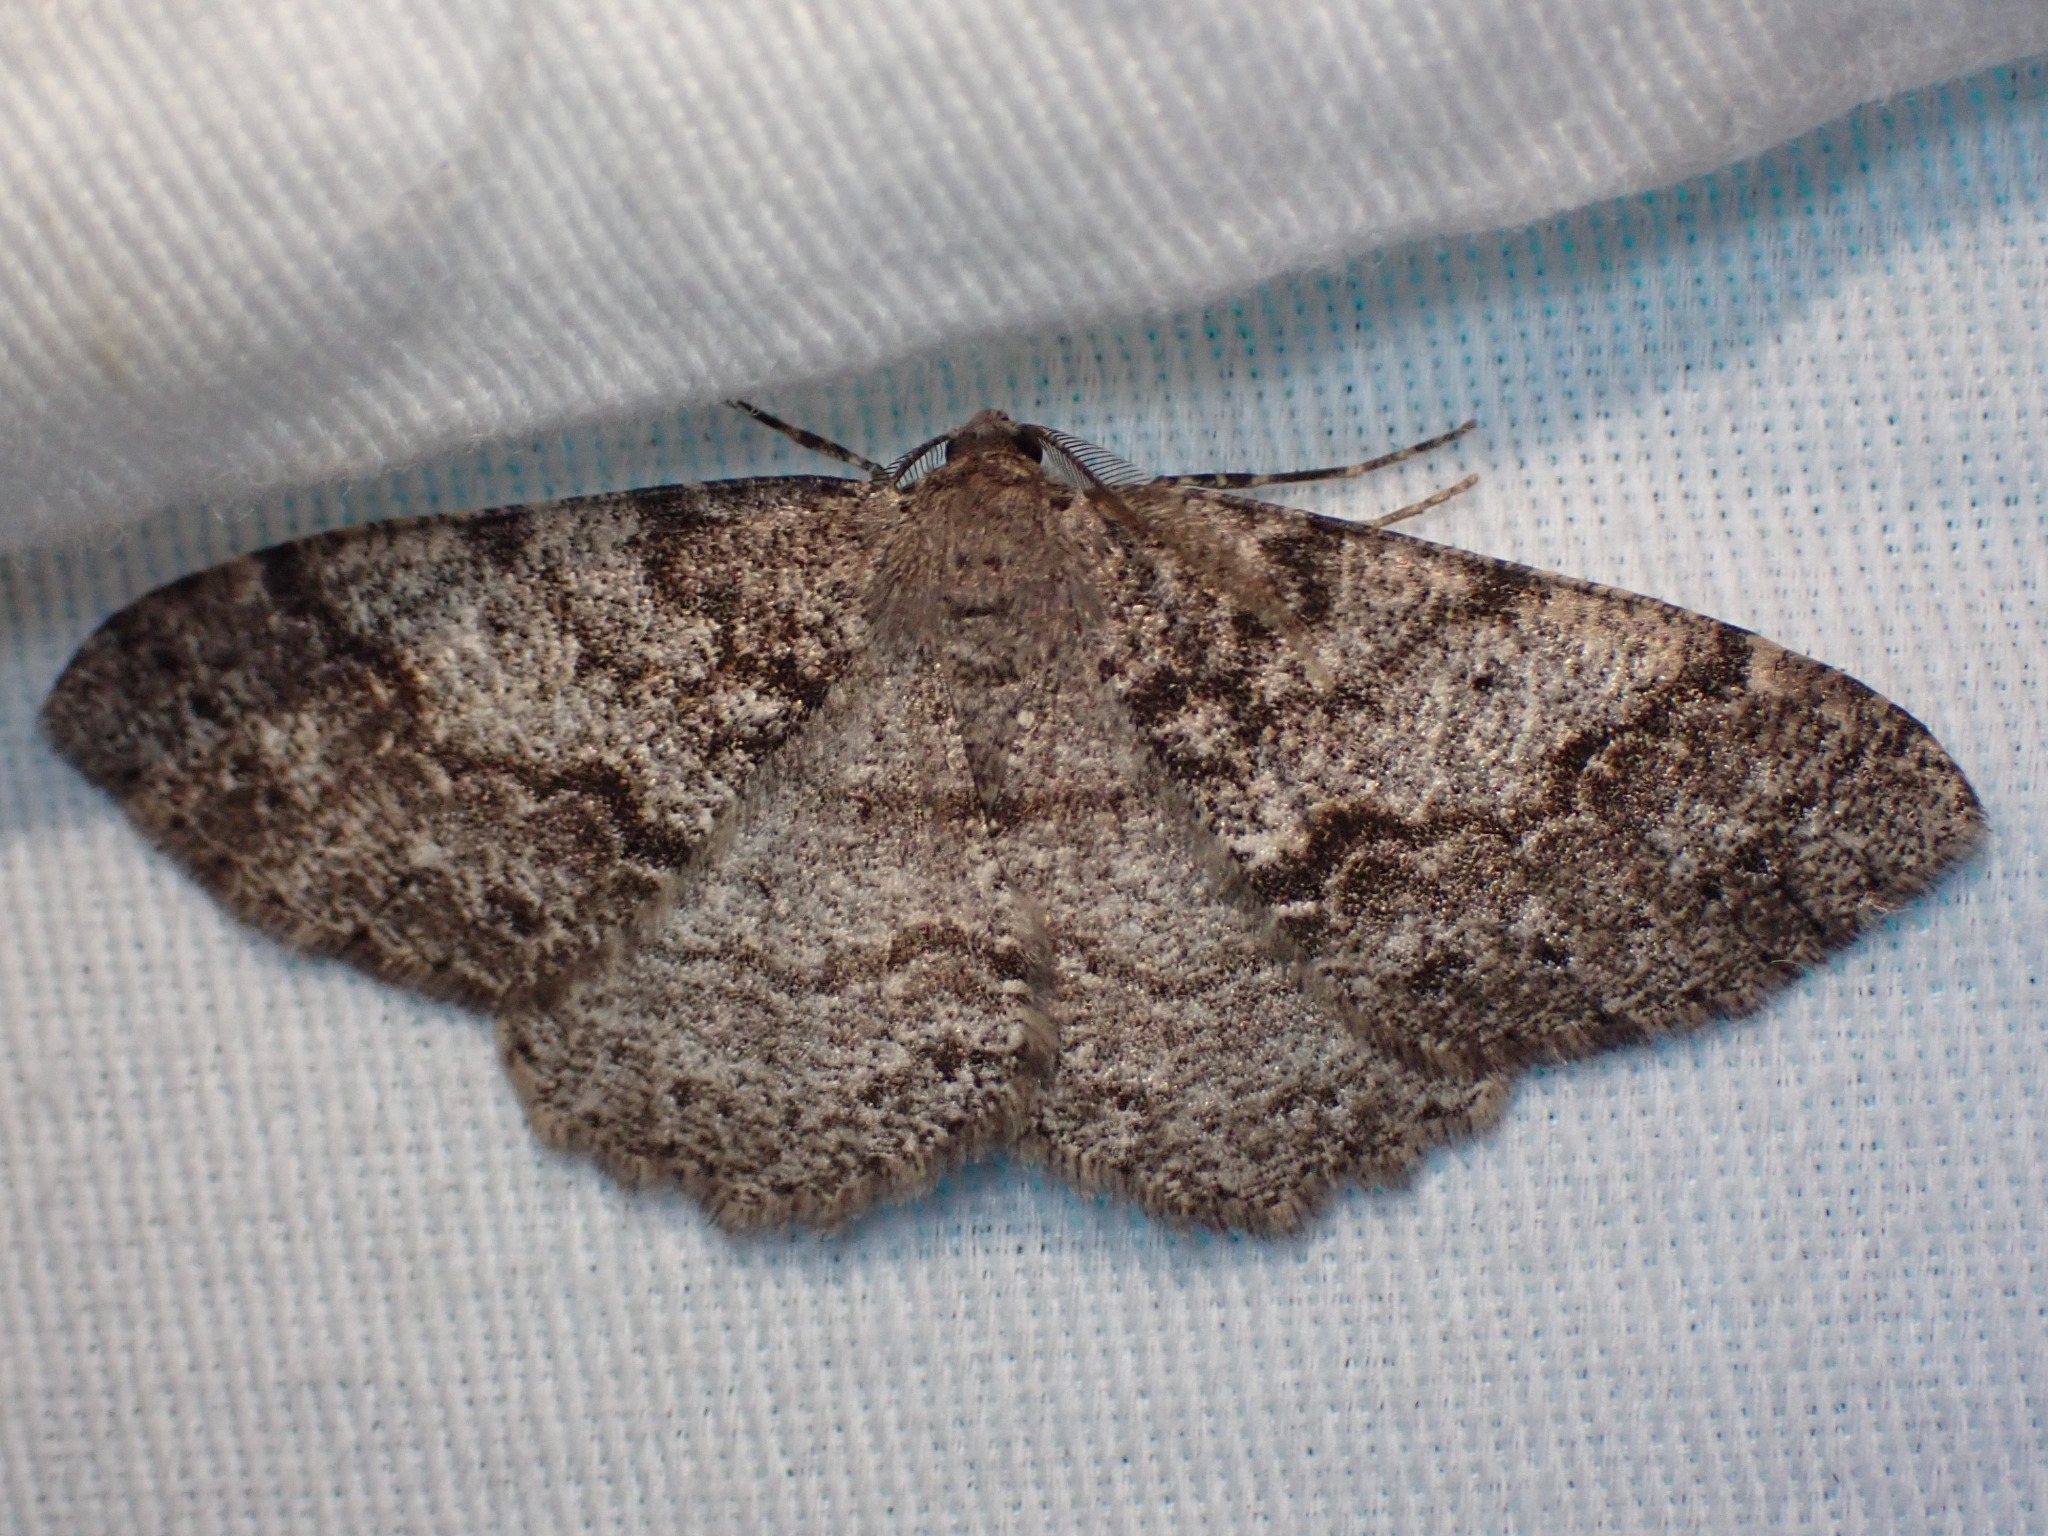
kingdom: Animalia
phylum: Arthropoda
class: Insecta
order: Lepidoptera
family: Geometridae
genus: Melanolophia
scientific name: Melanolophia imitata
